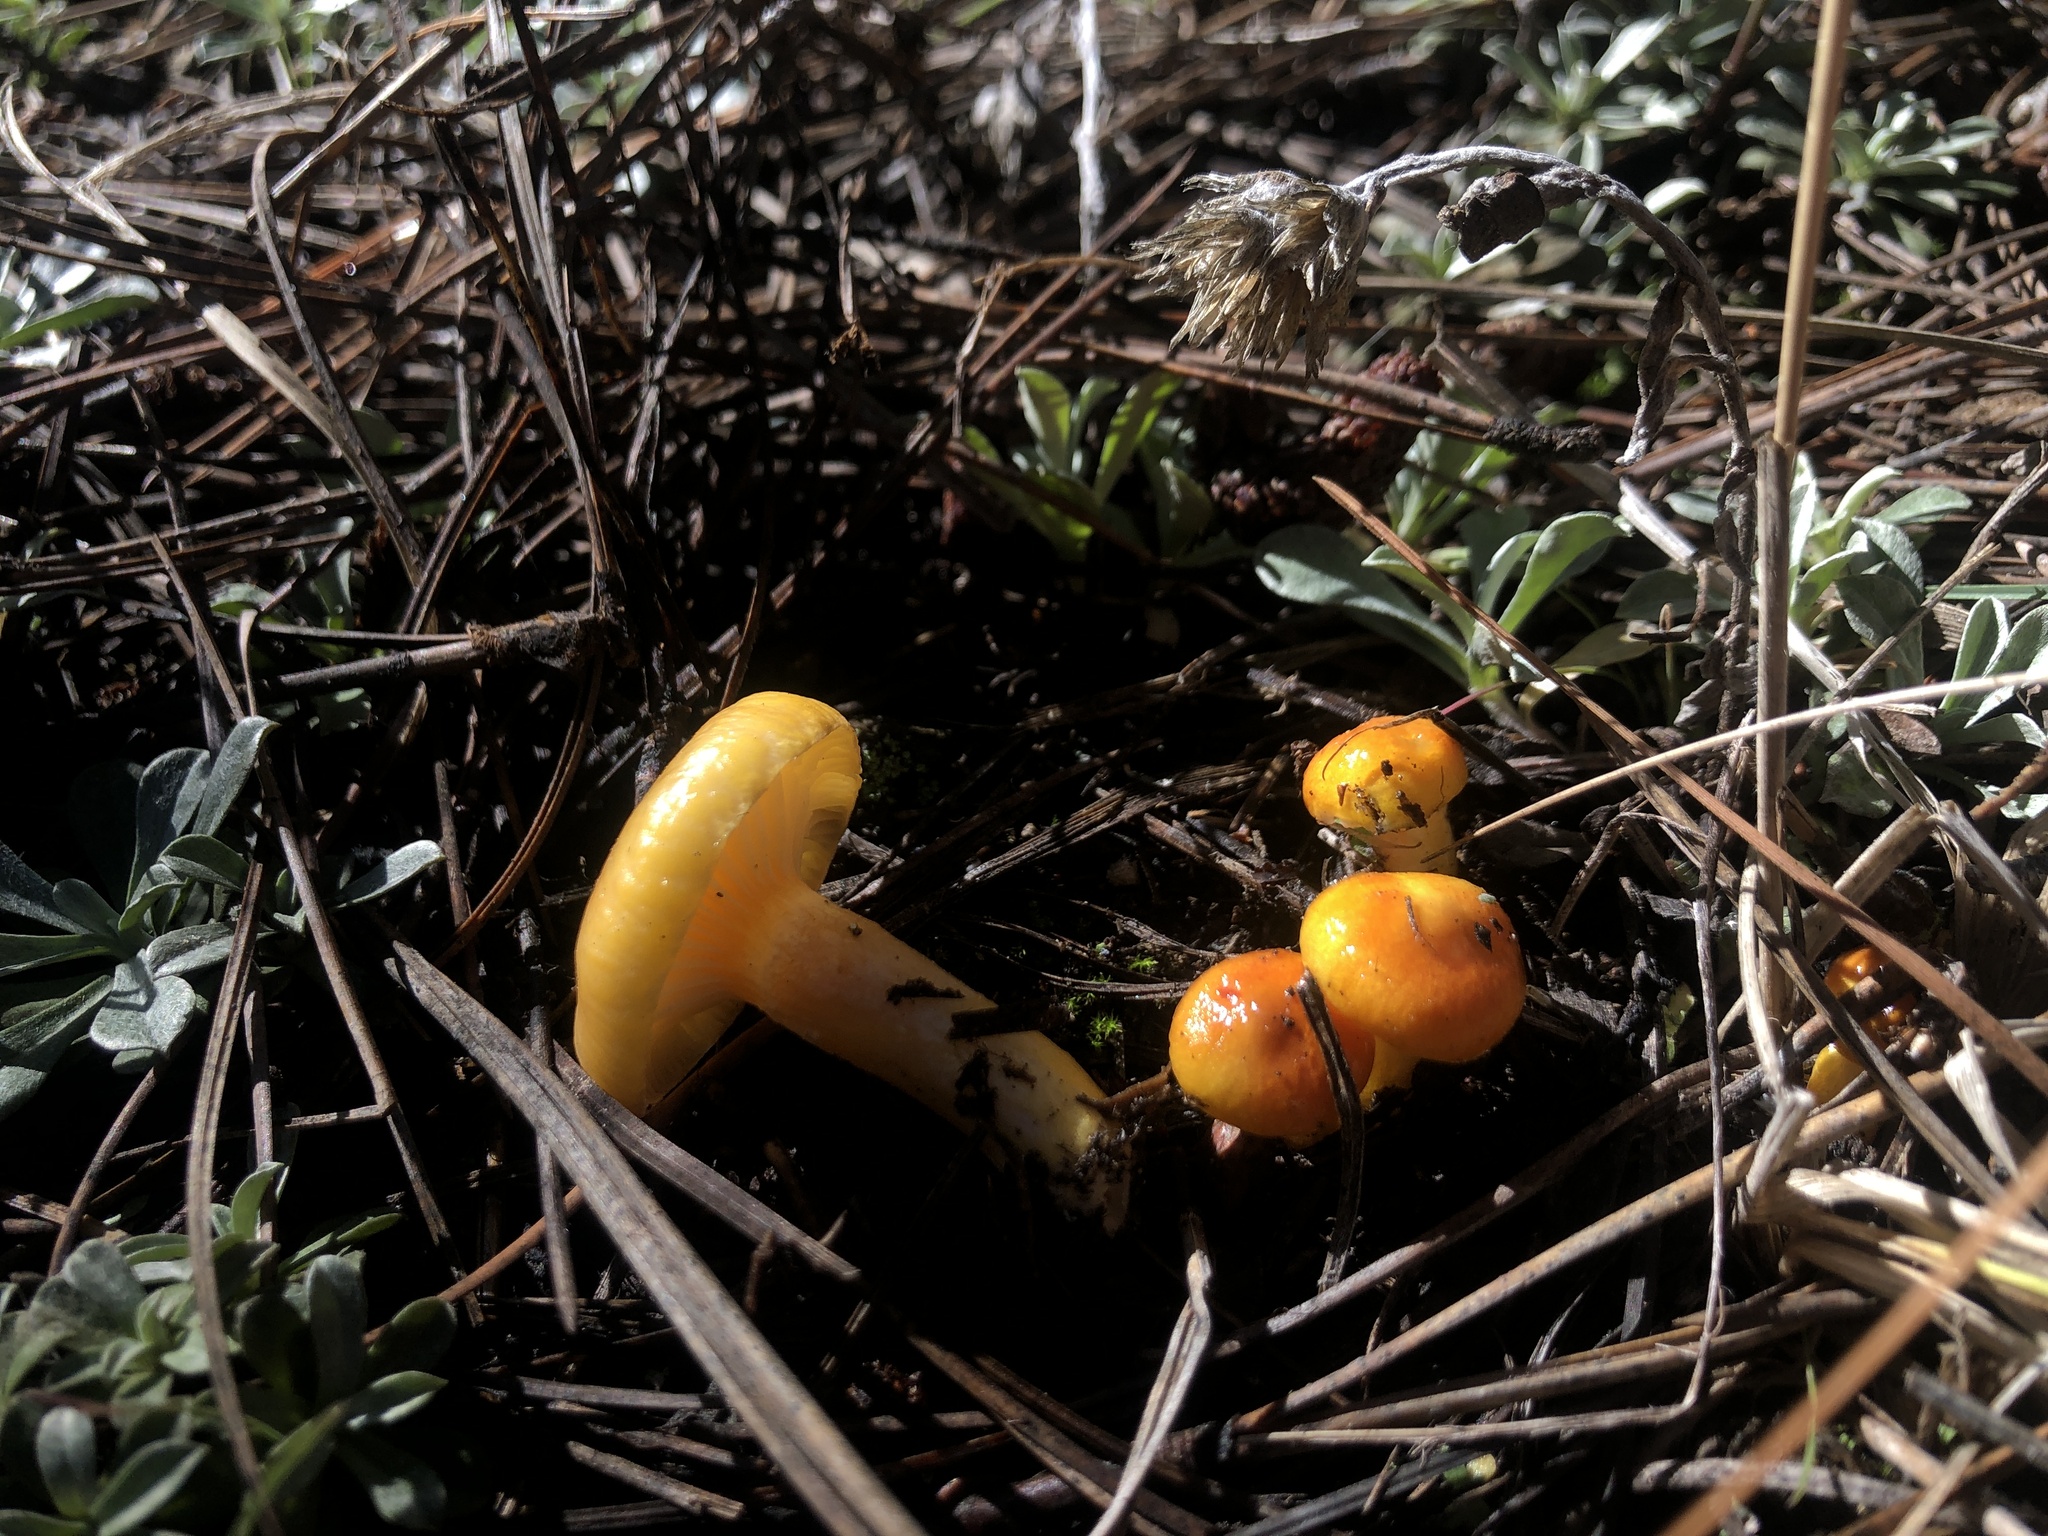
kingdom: Fungi
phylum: Basidiomycota
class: Agaricomycetes
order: Agaricales
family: Hygrophoraceae
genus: Hygrophorus
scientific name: Hygrophorus siccipes
